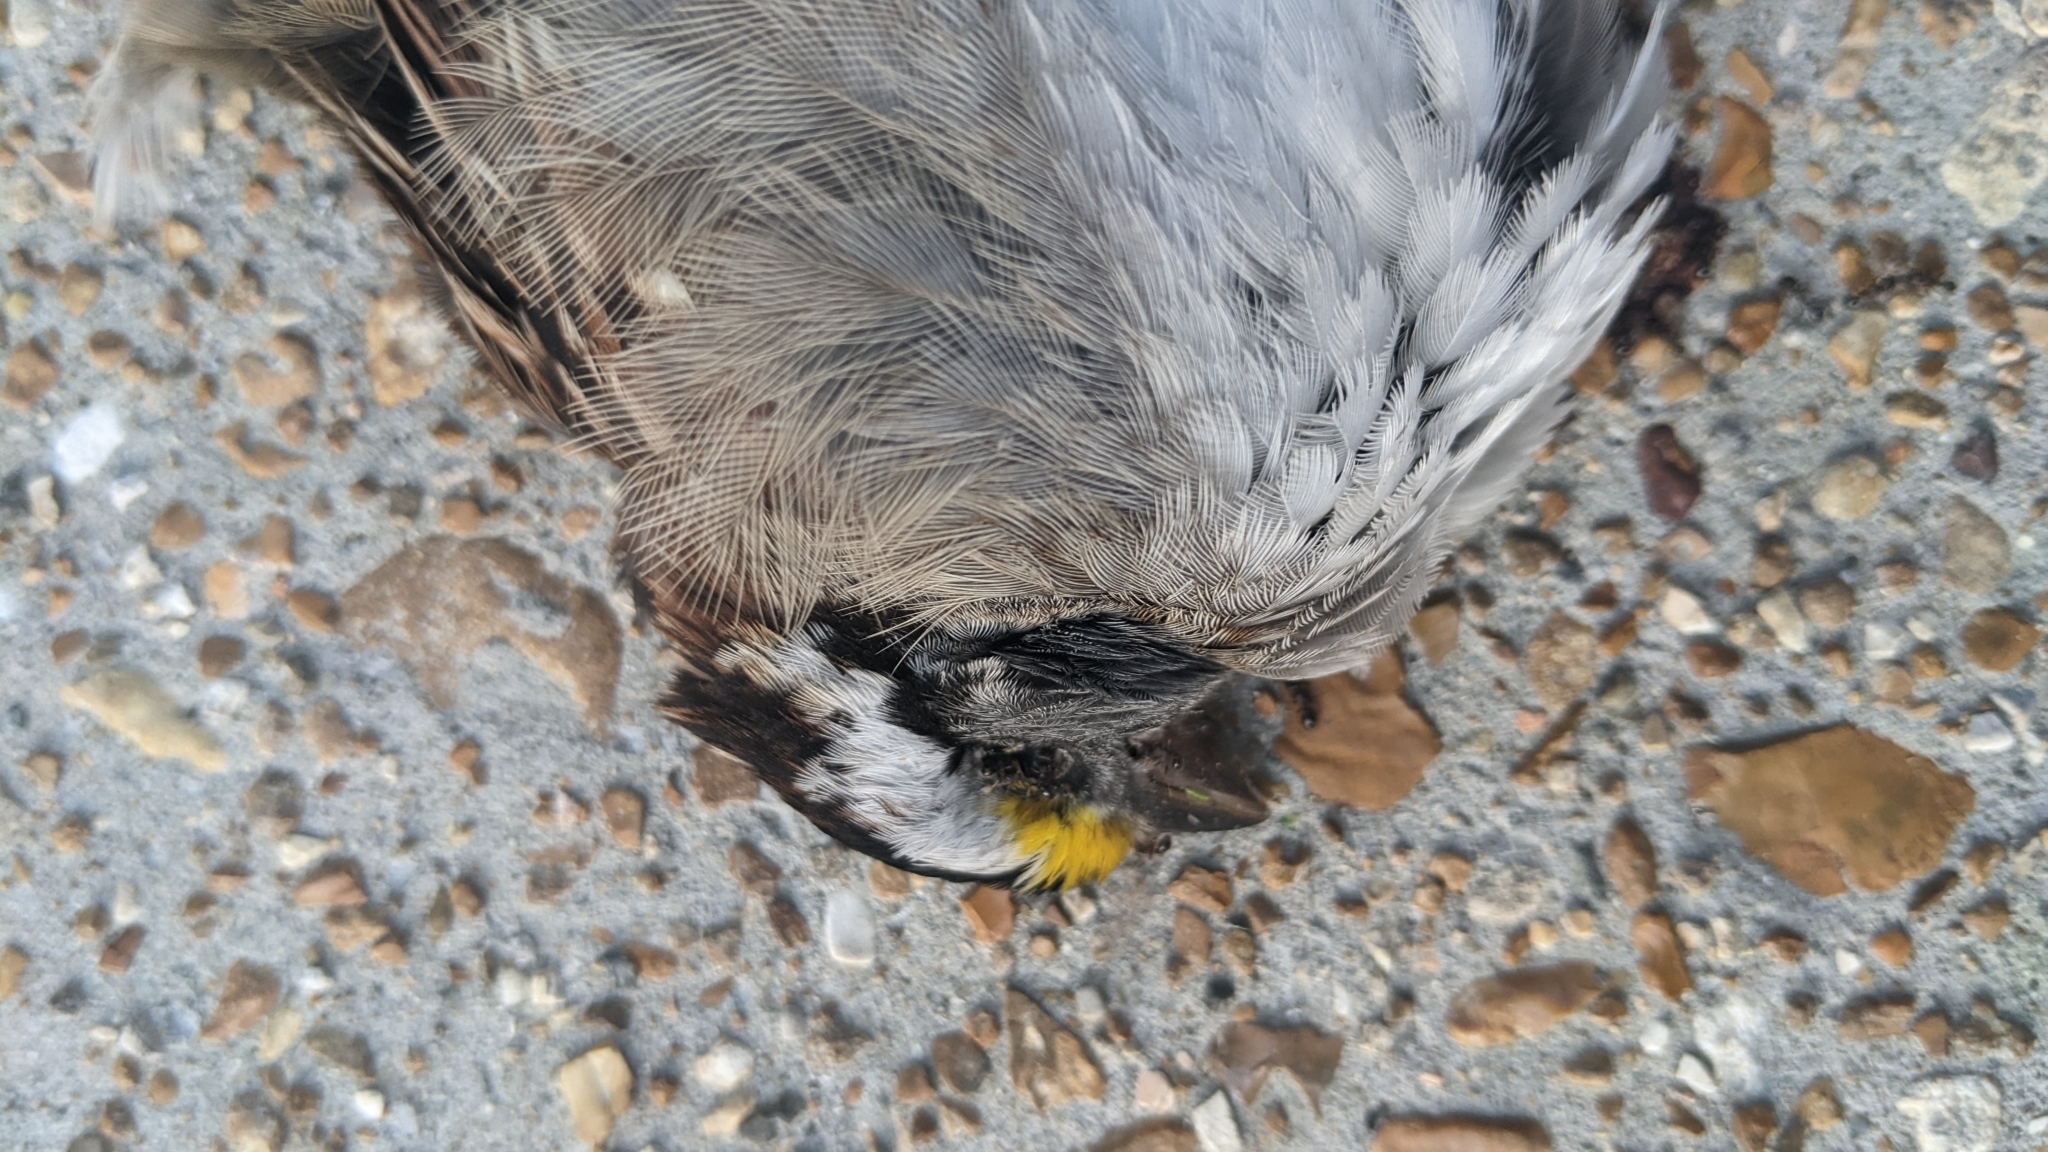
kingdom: Animalia
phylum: Chordata
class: Aves
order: Passeriformes
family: Passerellidae
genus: Zonotrichia
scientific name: Zonotrichia albicollis
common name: White-throated sparrow
